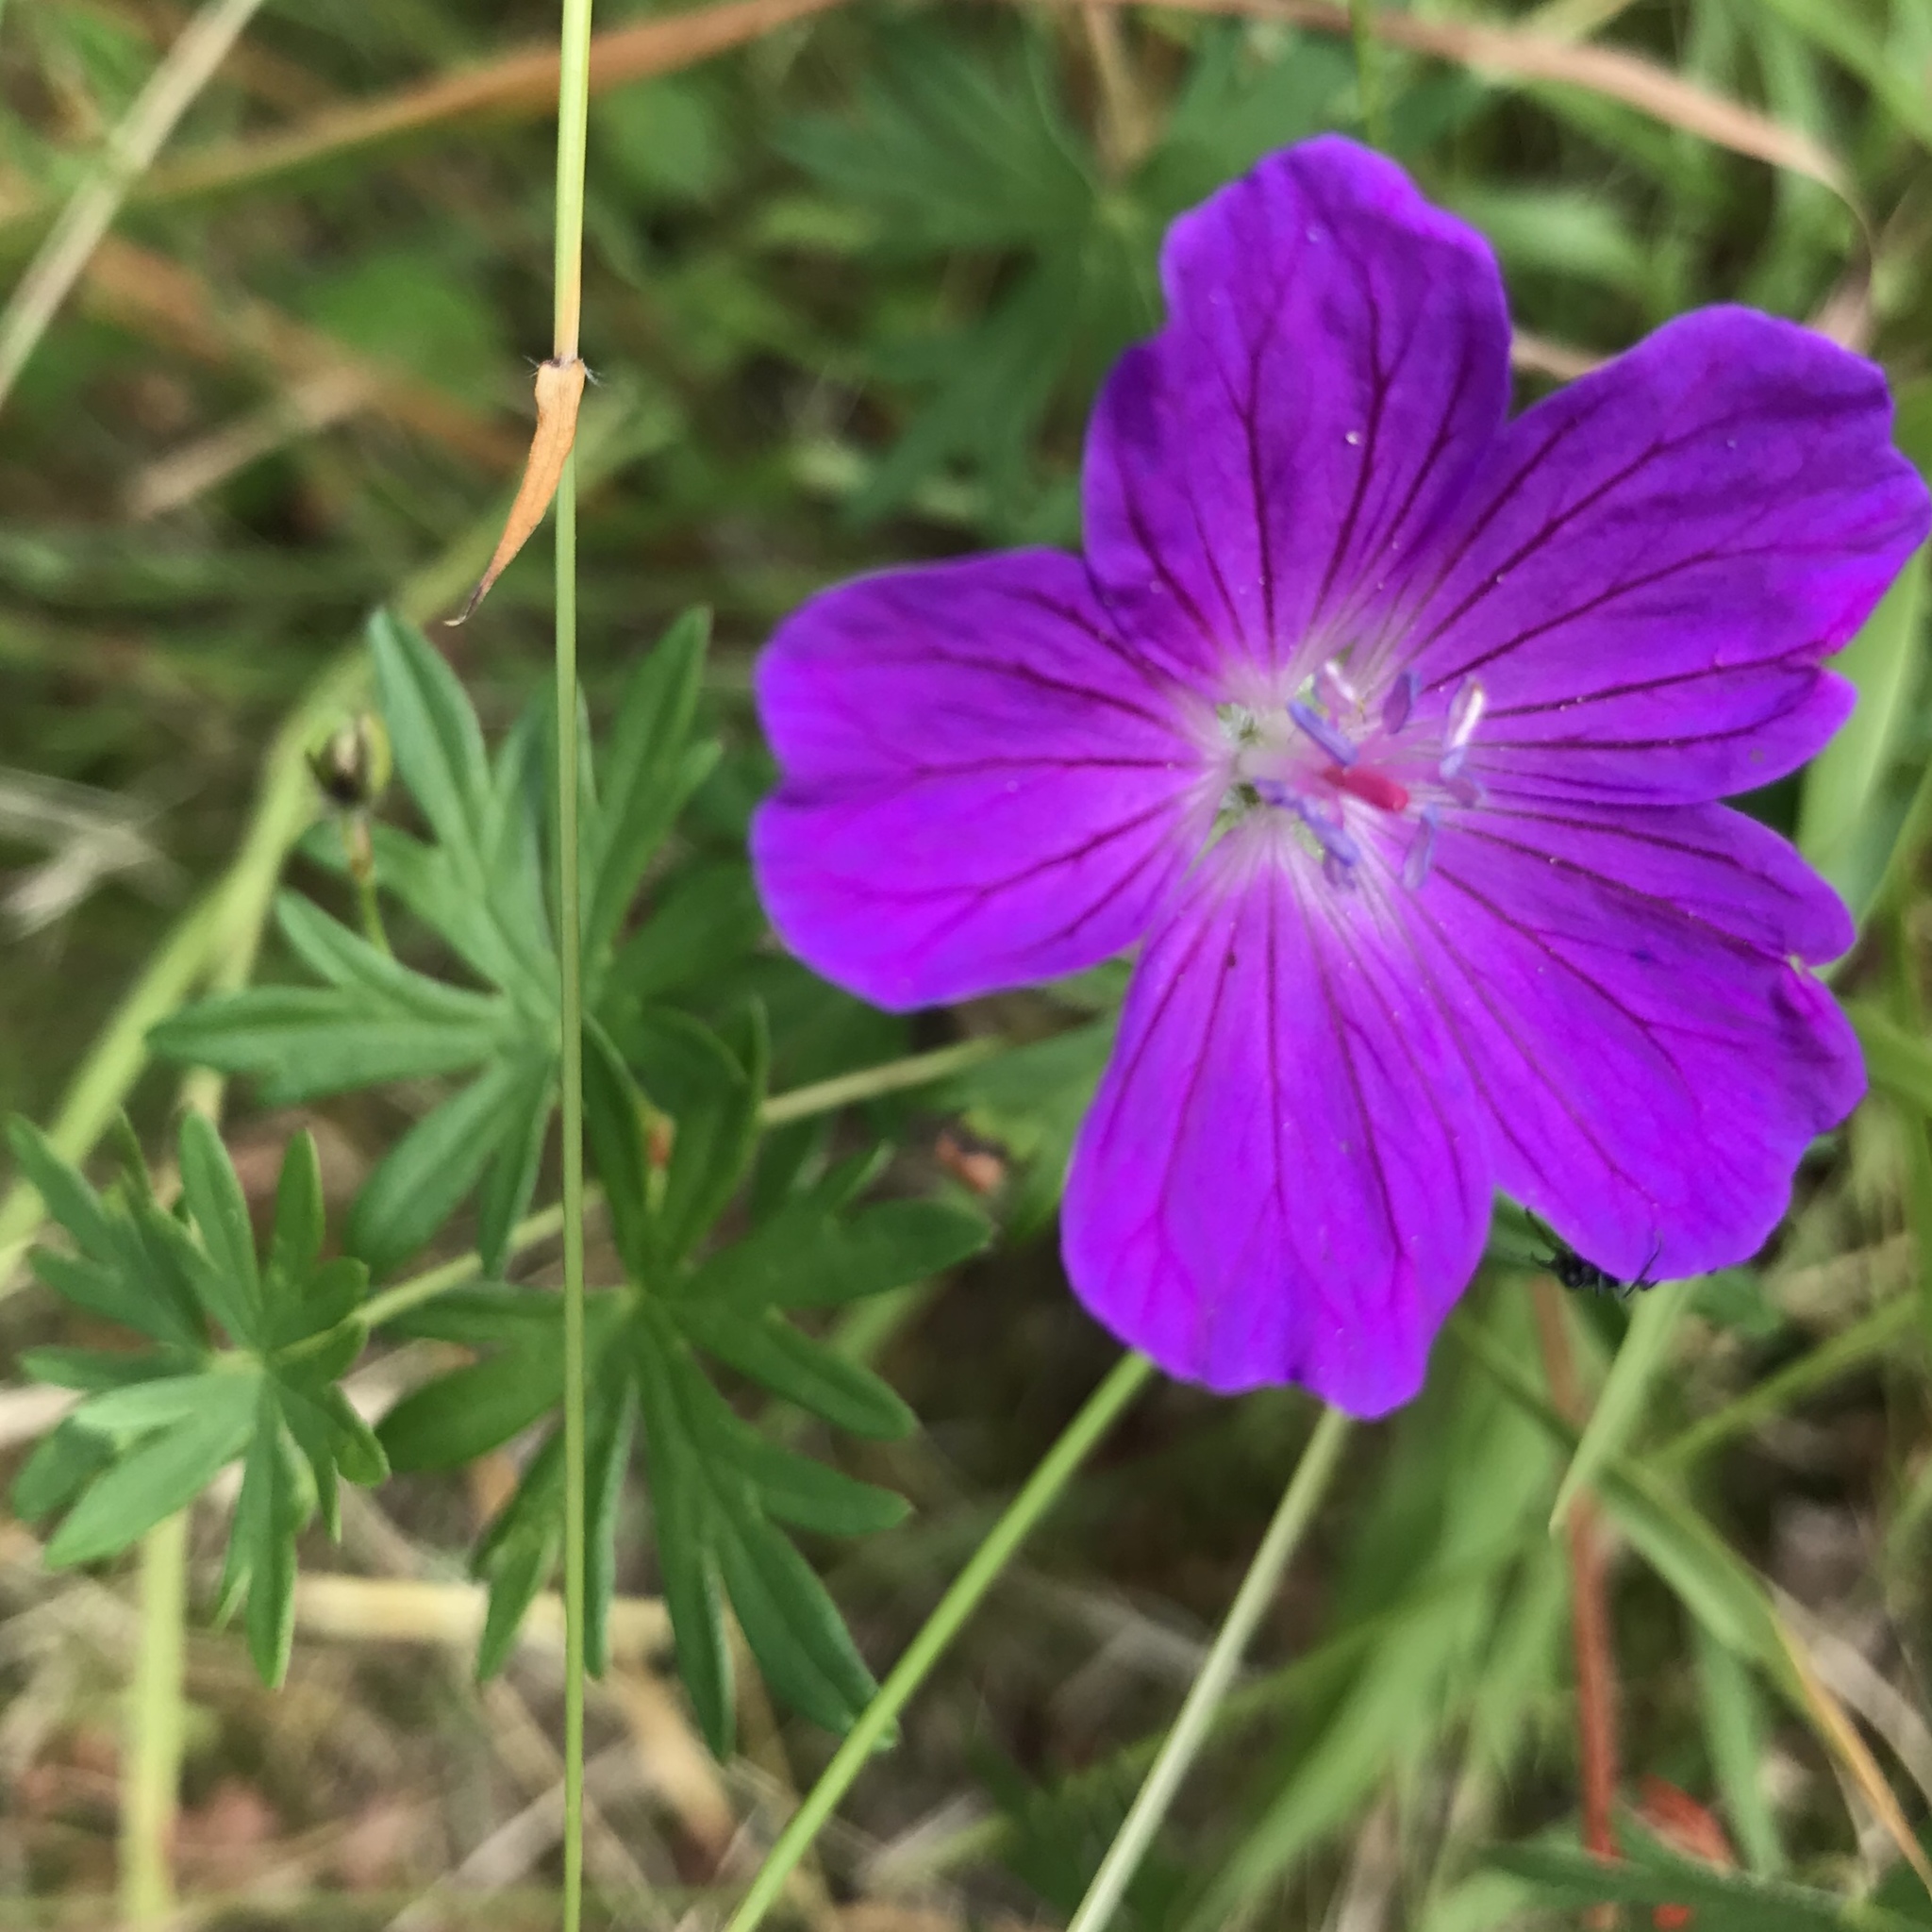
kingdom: Plantae
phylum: Tracheophyta
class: Magnoliopsida
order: Geraniales
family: Geraniaceae
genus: Geranium
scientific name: Geranium sanguineum
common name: Bloody crane's-bill
